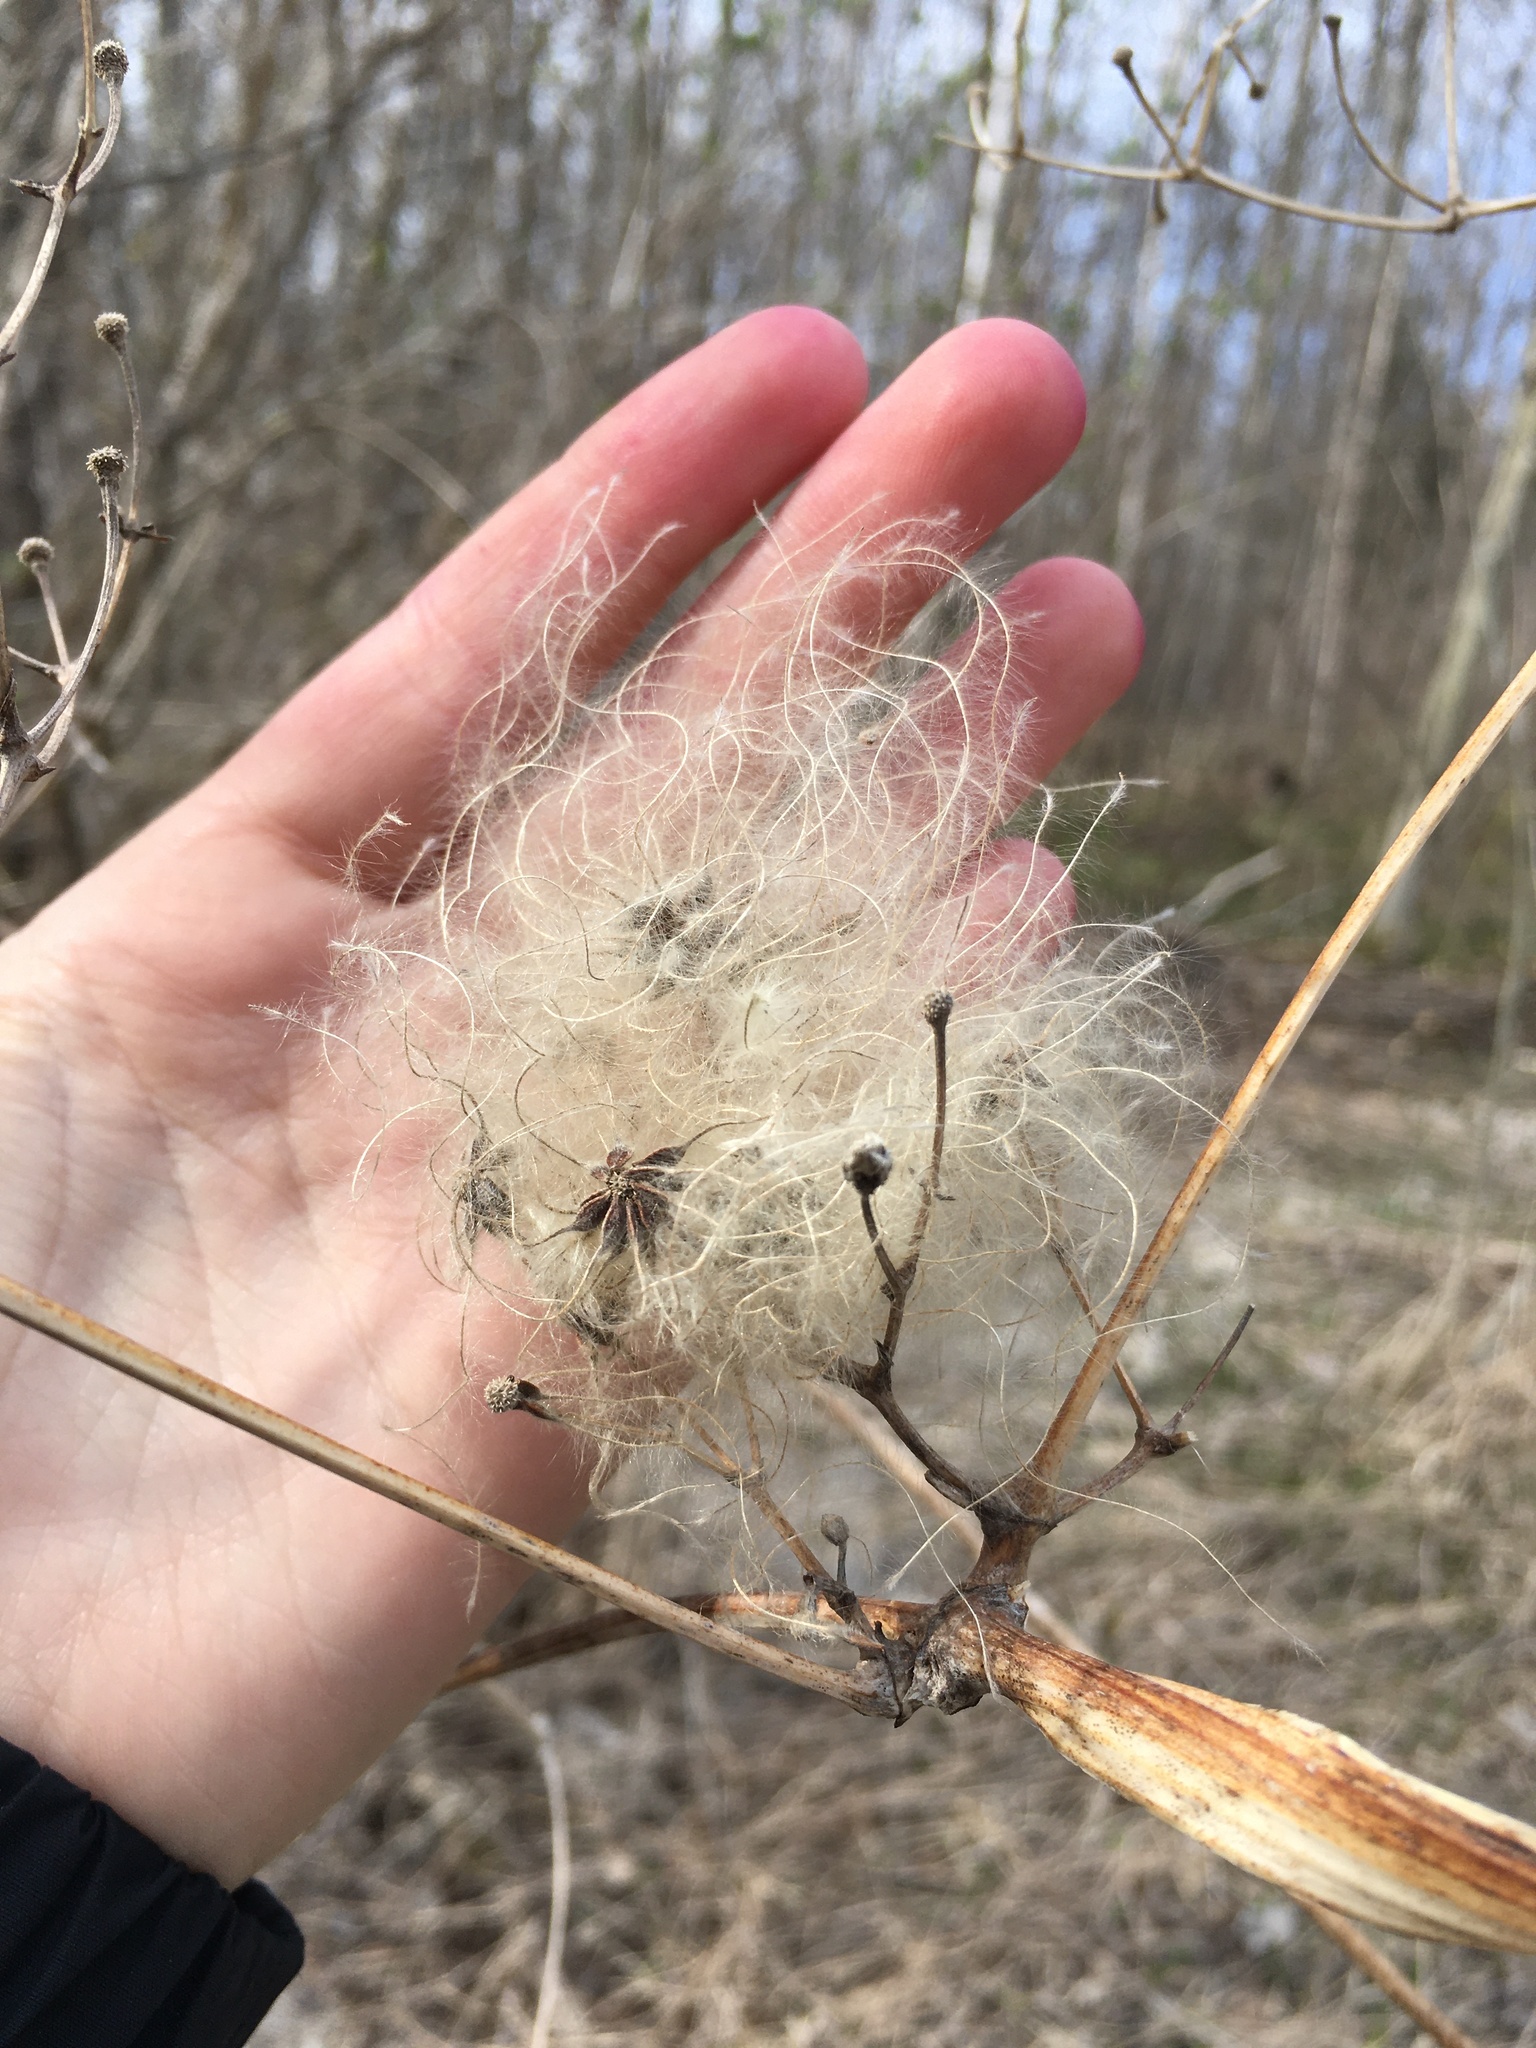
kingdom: Plantae
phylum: Tracheophyta
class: Magnoliopsida
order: Ranunculales
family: Ranunculaceae
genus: Clematis
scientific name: Clematis virginiana
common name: Virgin's-bower
